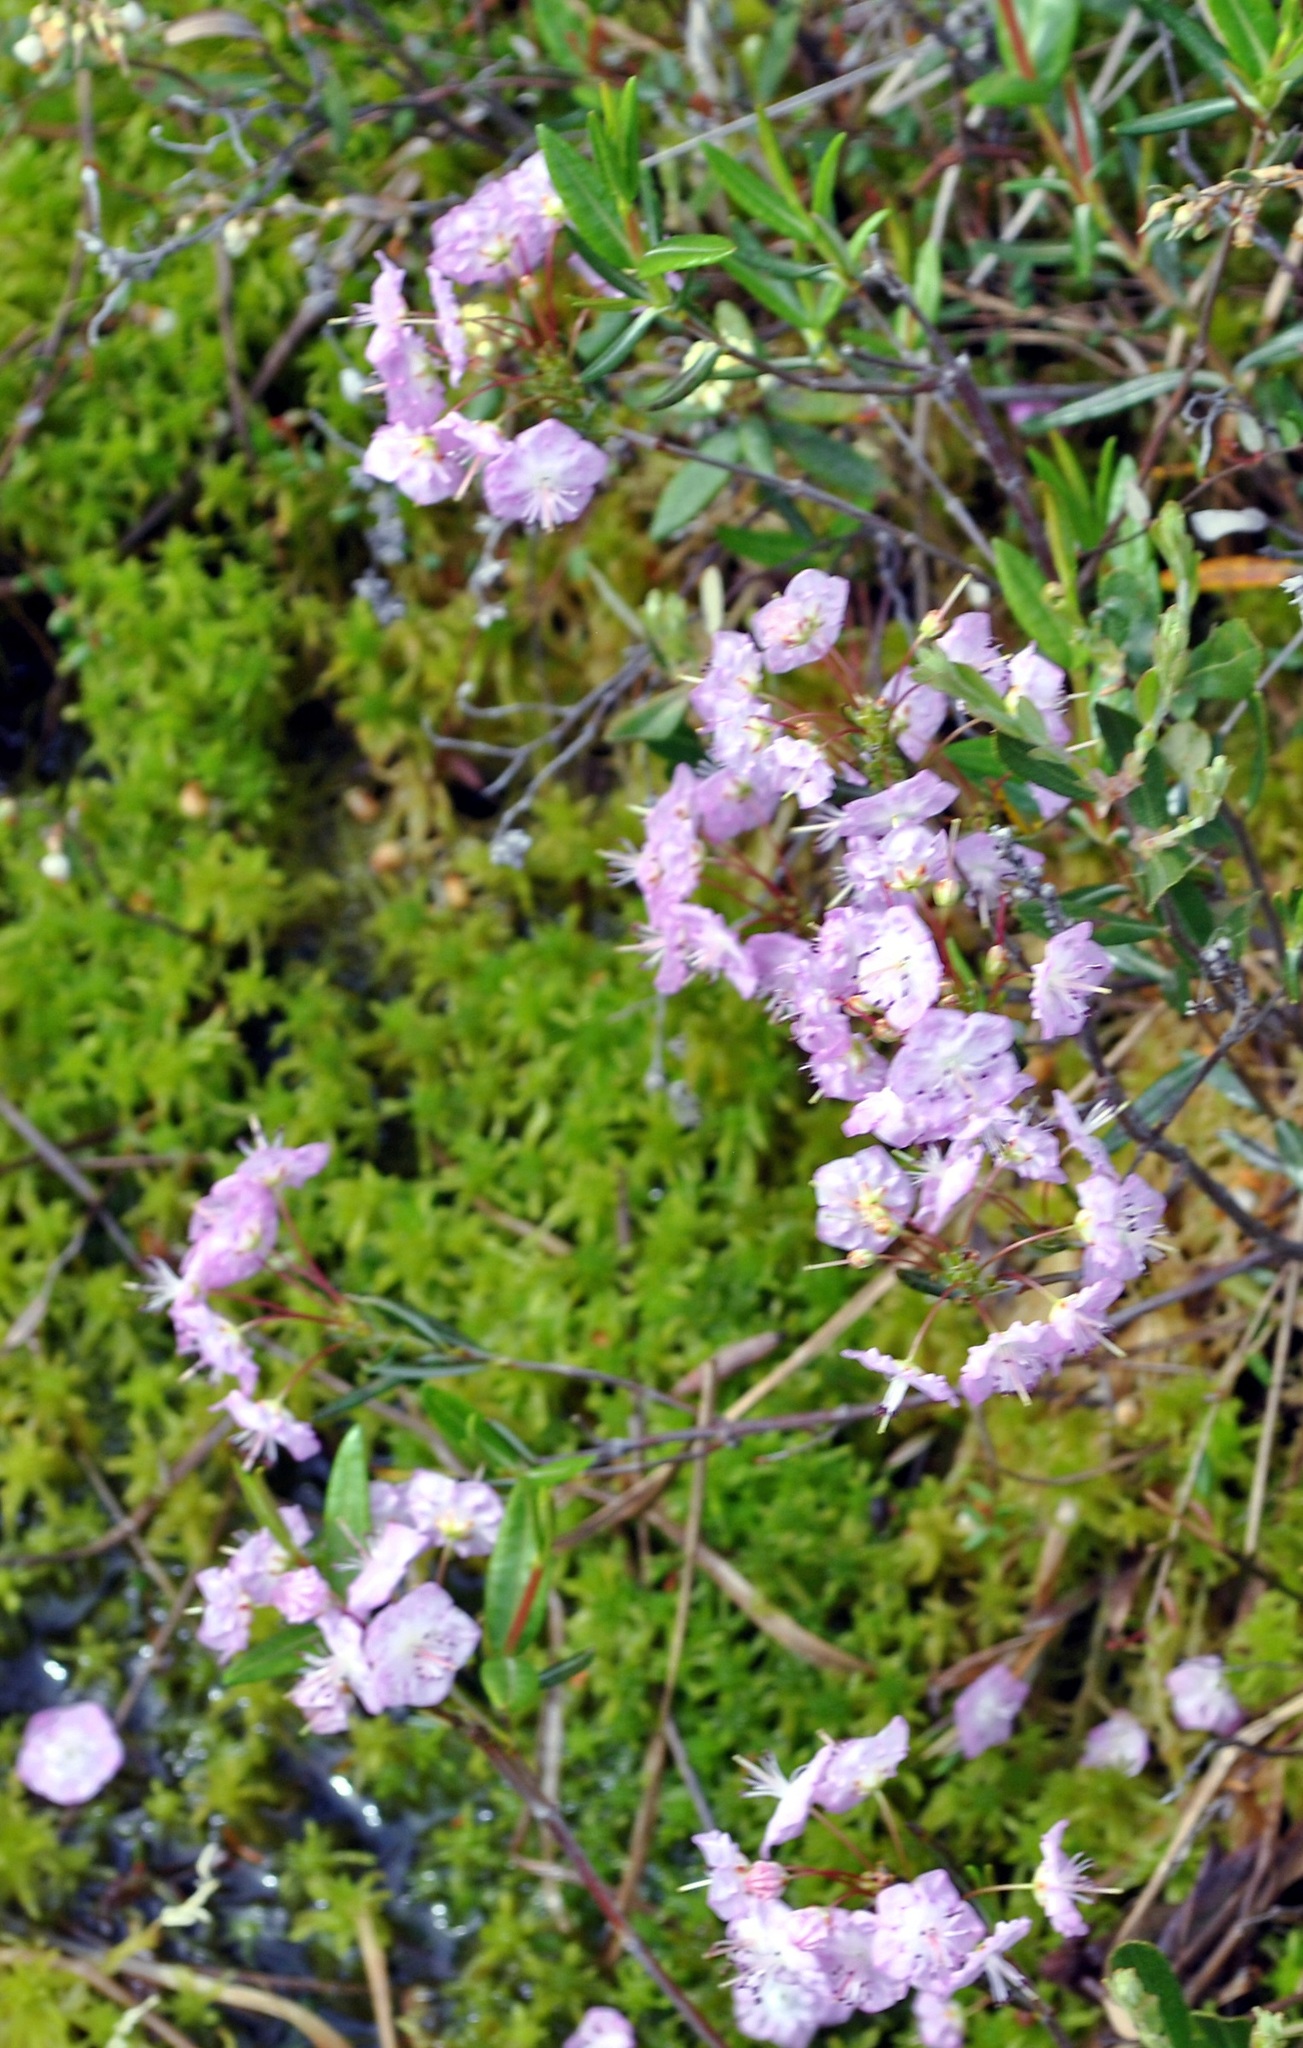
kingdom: Plantae
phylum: Tracheophyta
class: Magnoliopsida
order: Ericales
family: Ericaceae
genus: Kalmia
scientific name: Kalmia polifolia
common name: Bog-laurel
